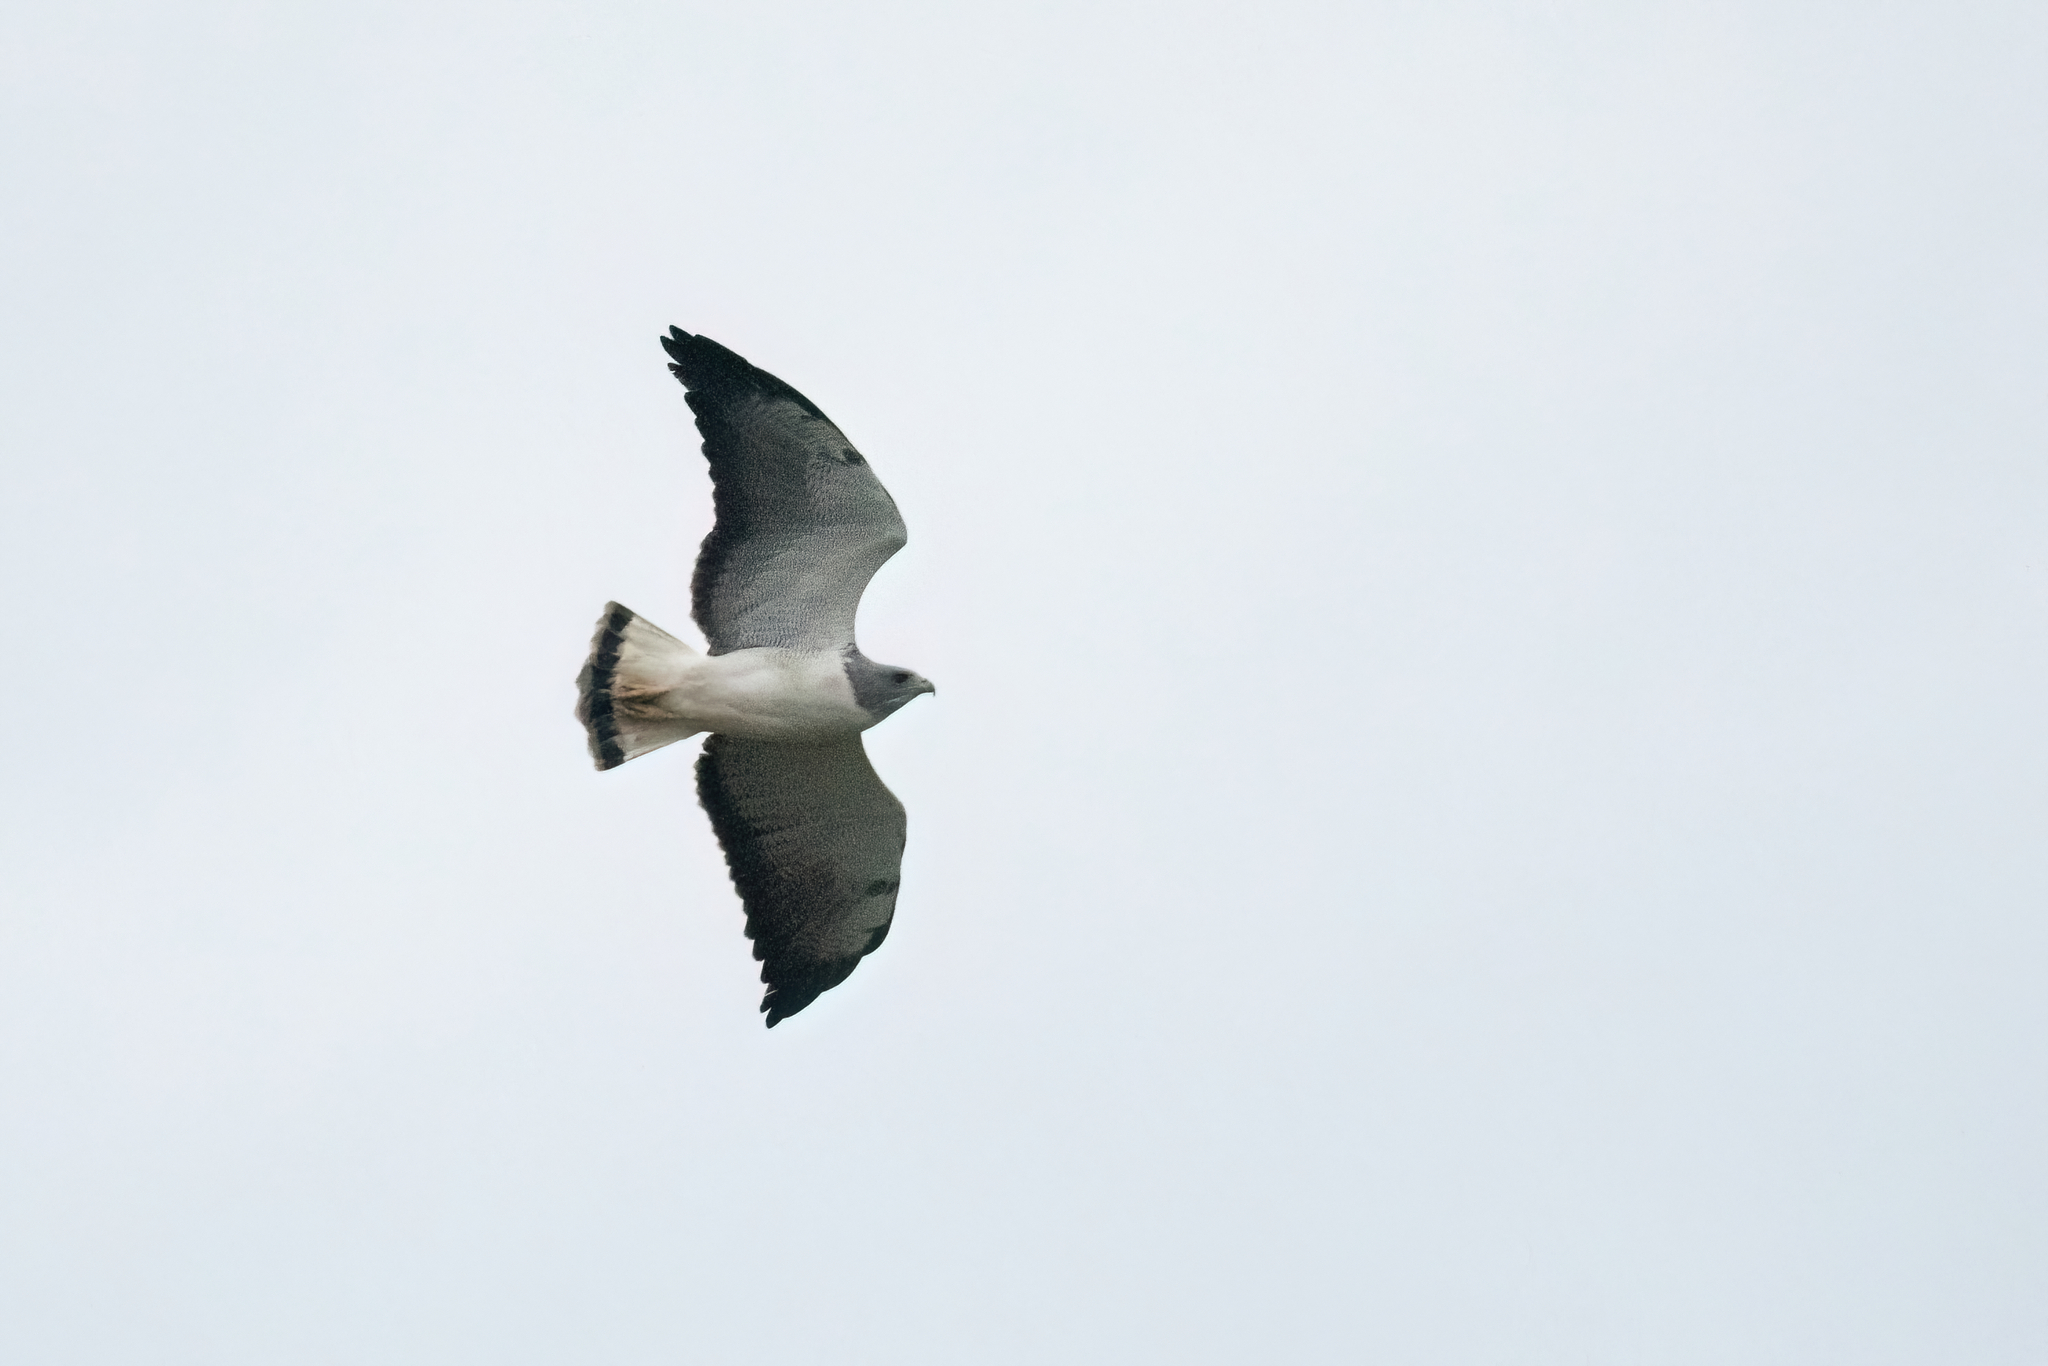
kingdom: Animalia
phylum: Chordata
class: Aves
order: Accipitriformes
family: Accipitridae
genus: Buteo
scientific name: Buteo albicaudatus
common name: White-tailed hawk
